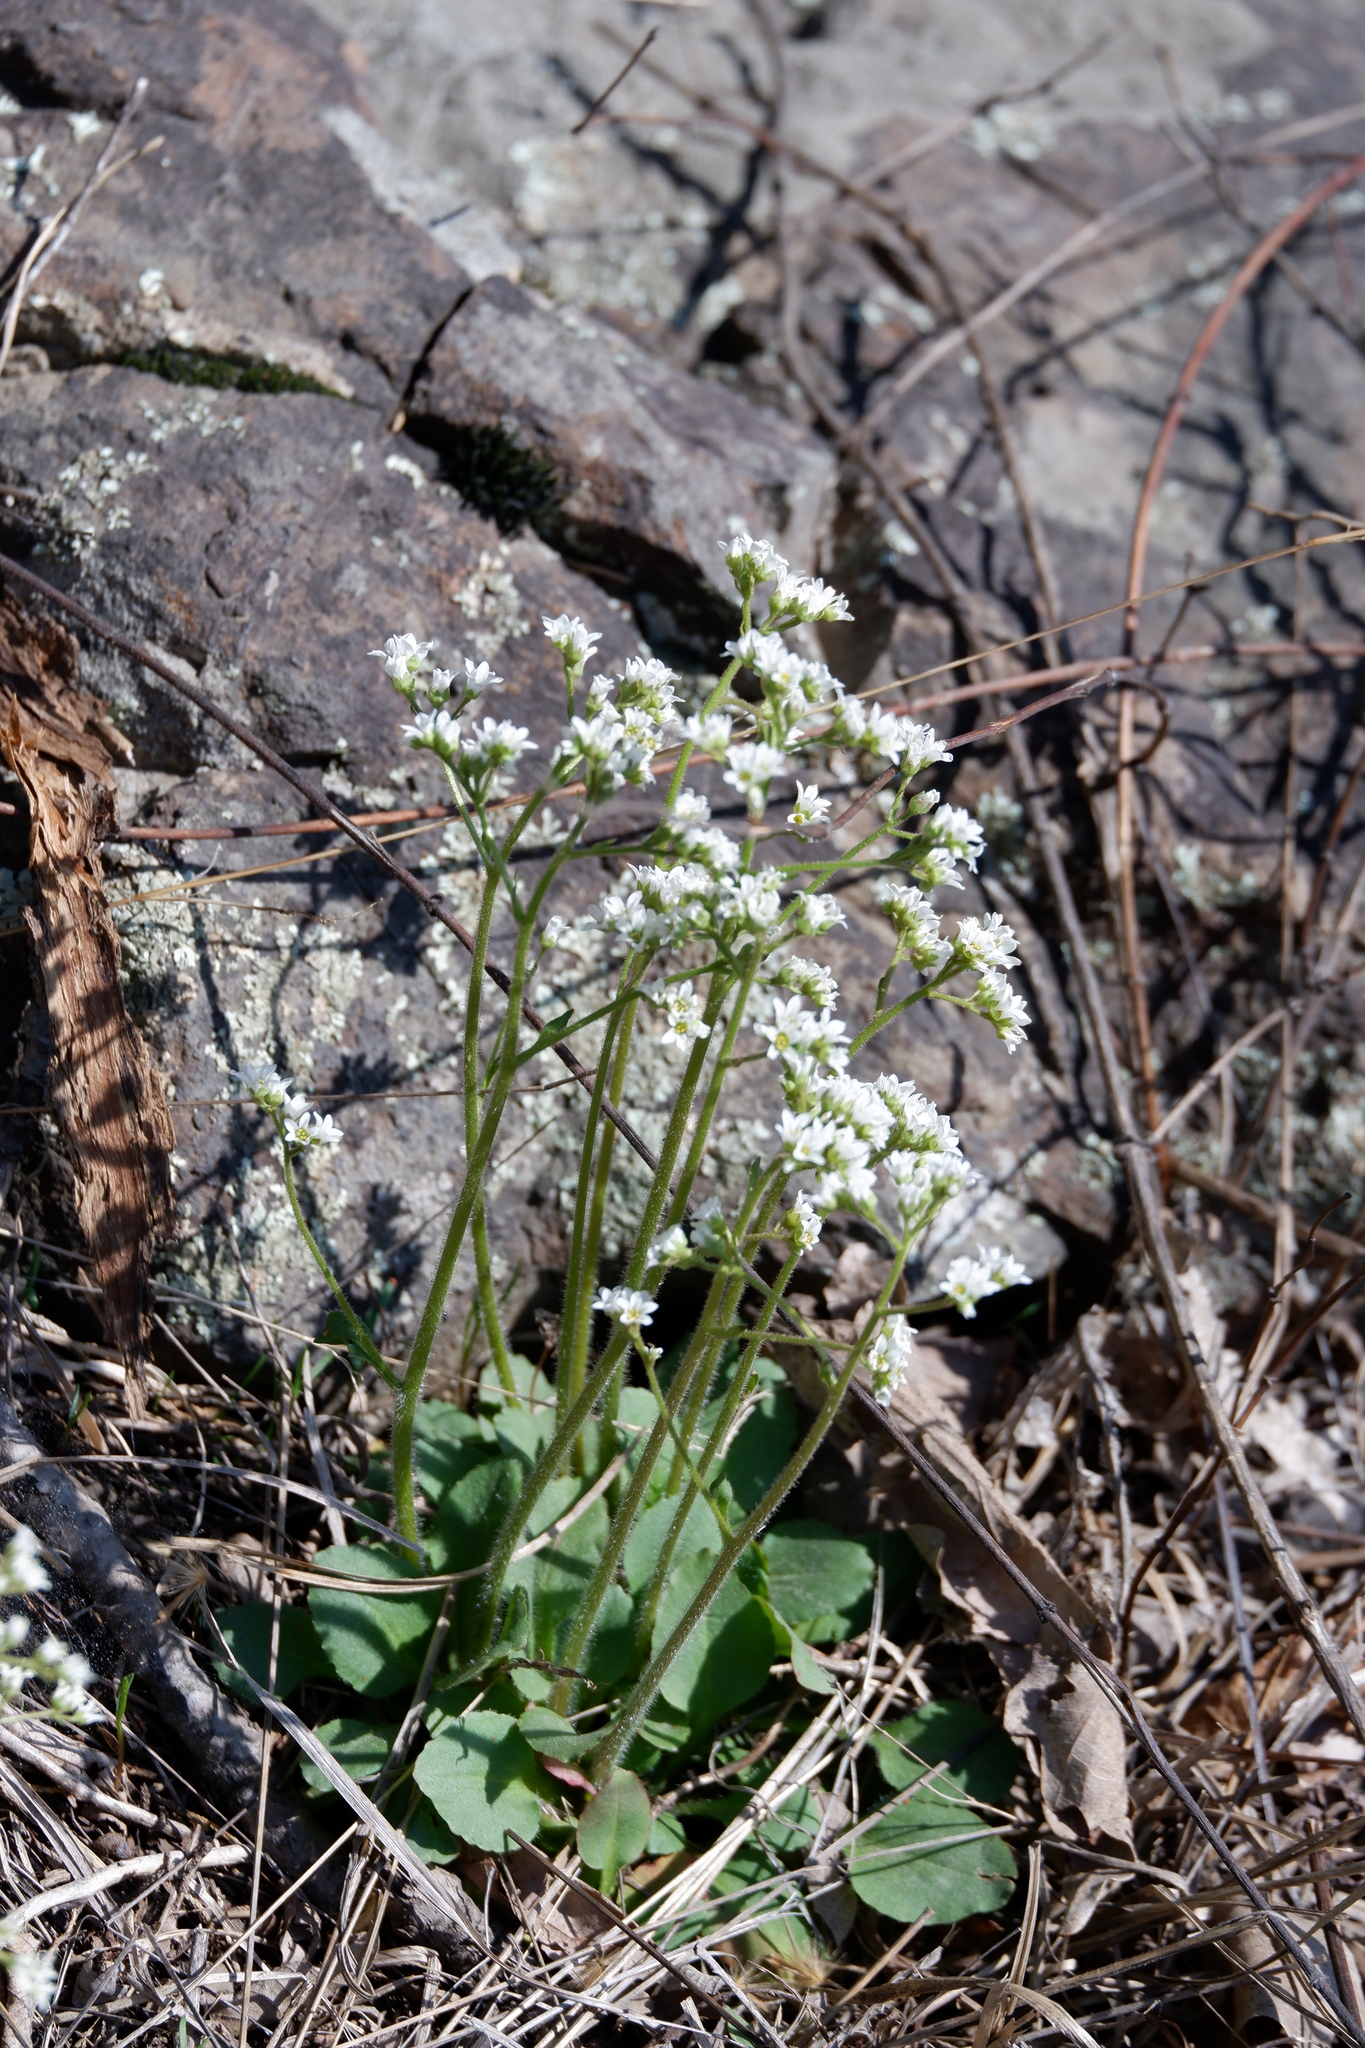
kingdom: Plantae
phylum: Tracheophyta
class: Magnoliopsida
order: Saxifragales
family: Saxifragaceae
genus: Micranthes
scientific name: Micranthes virginiensis
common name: Early saxifrage
